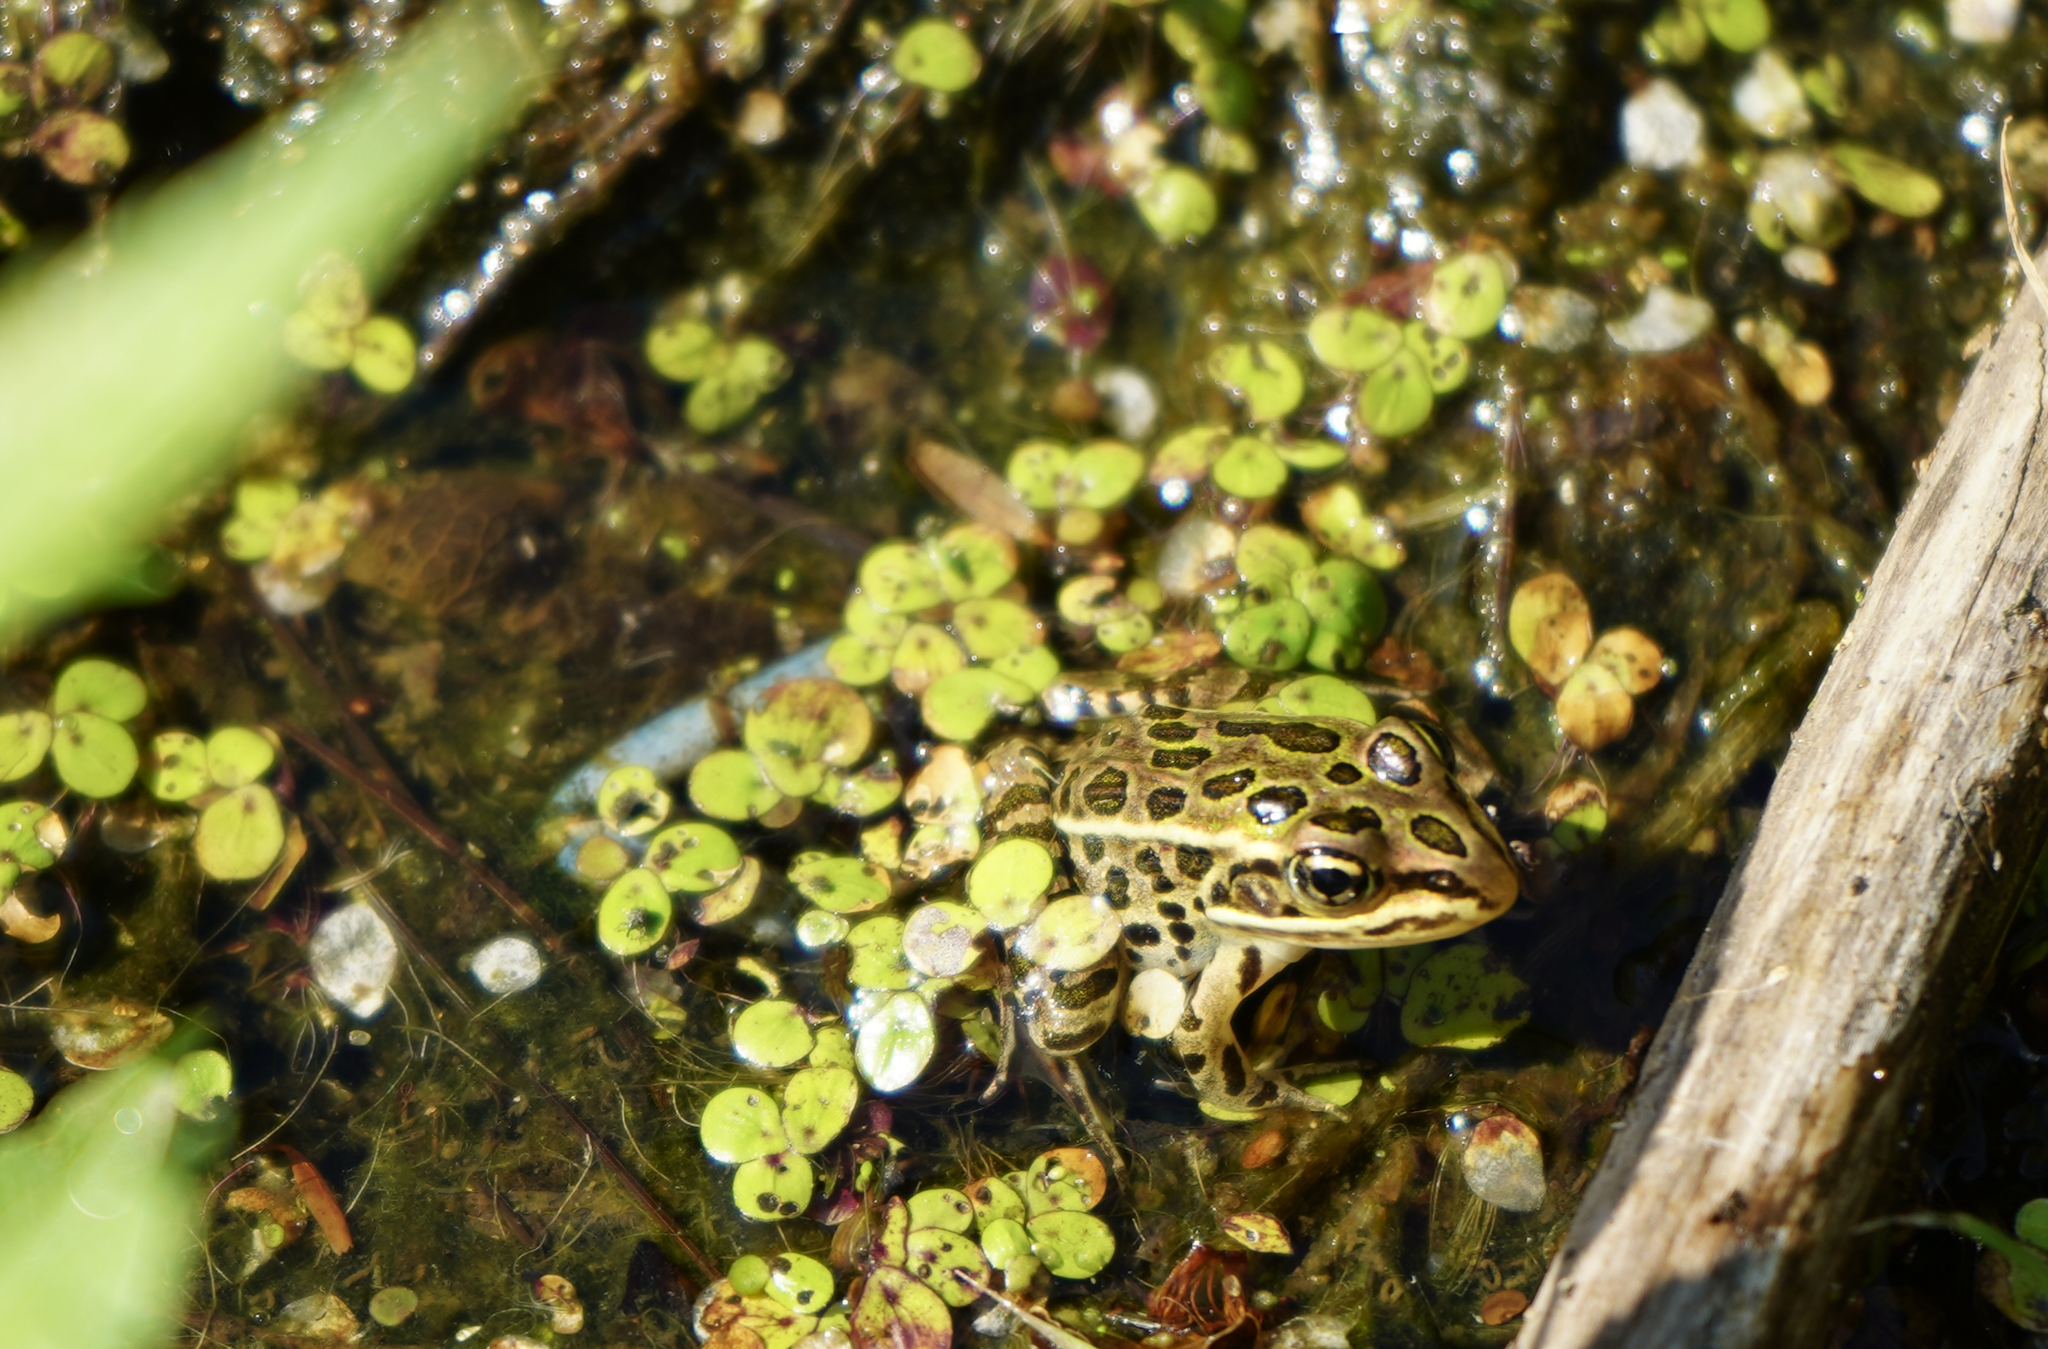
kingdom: Animalia
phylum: Chordata
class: Amphibia
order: Anura
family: Ranidae
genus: Lithobates
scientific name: Lithobates pipiens
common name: Northern leopard frog
